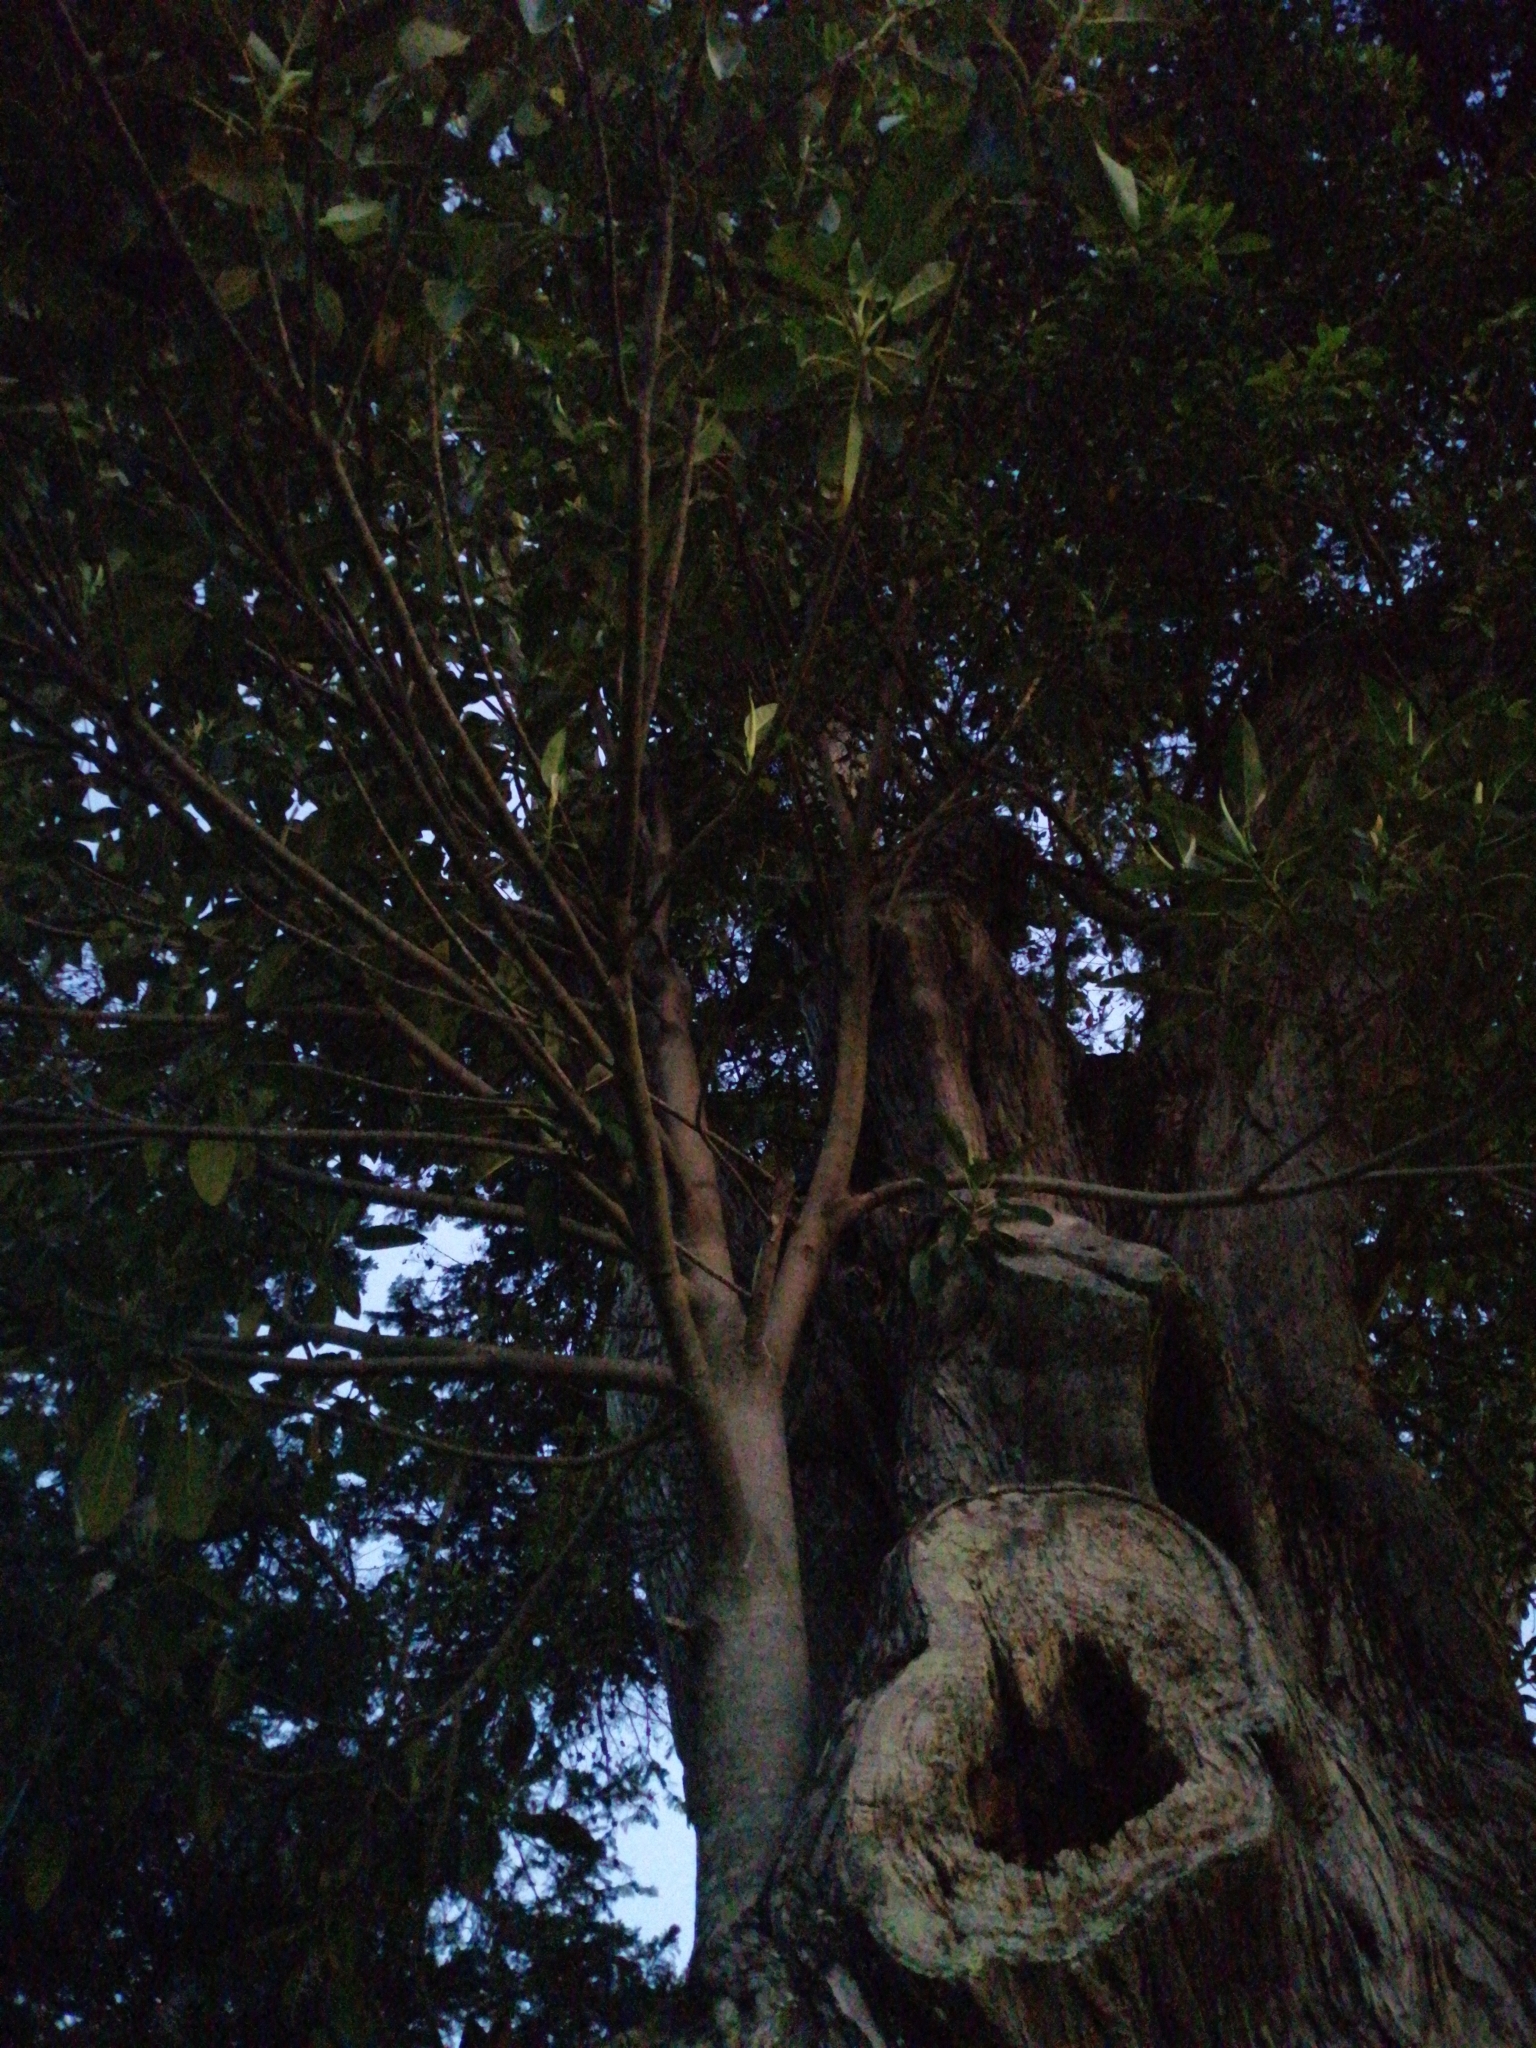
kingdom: Plantae
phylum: Tracheophyta
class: Magnoliopsida
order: Rosales
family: Moraceae
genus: Ficus
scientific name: Ficus macrophylla
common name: Moreton bay fig
